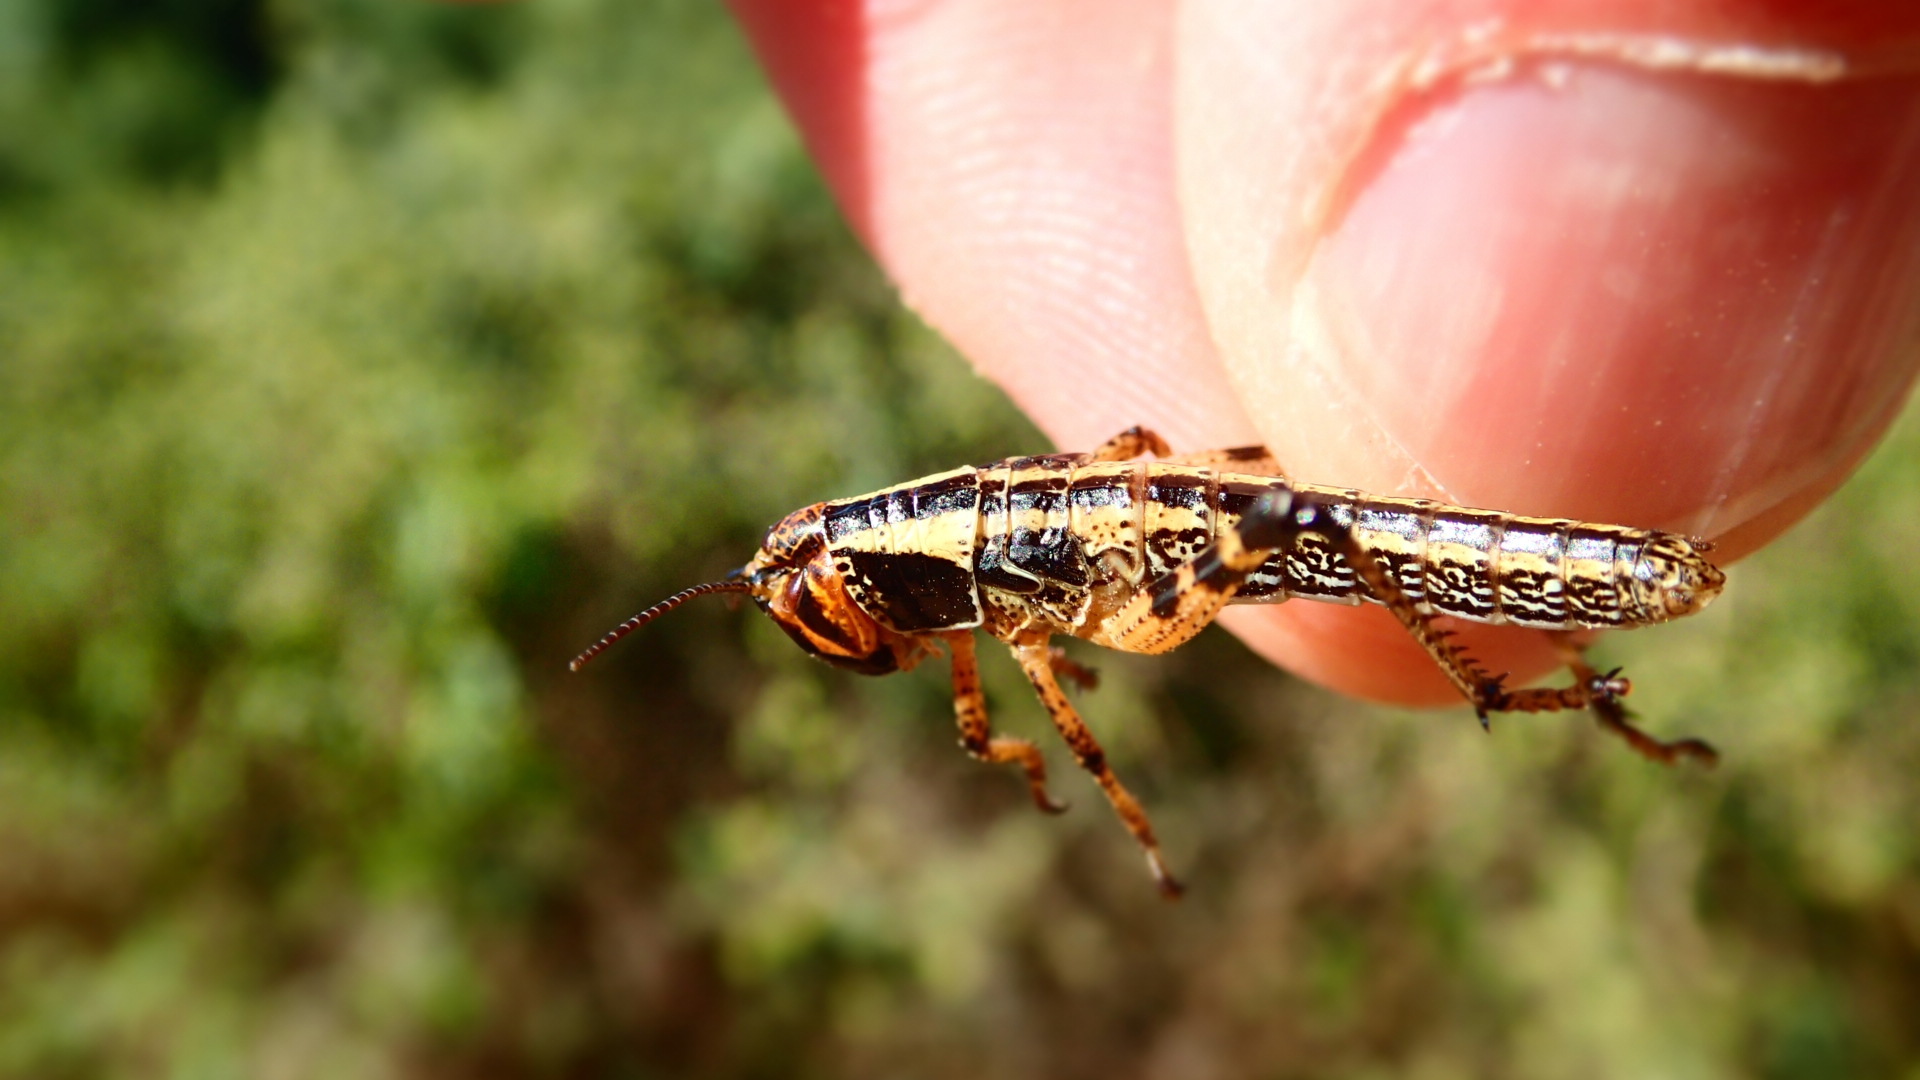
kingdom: Animalia
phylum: Arthropoda
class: Insecta
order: Orthoptera
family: Acrididae
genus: Schistocerca
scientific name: Schistocerca cancellata
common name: South american locust
